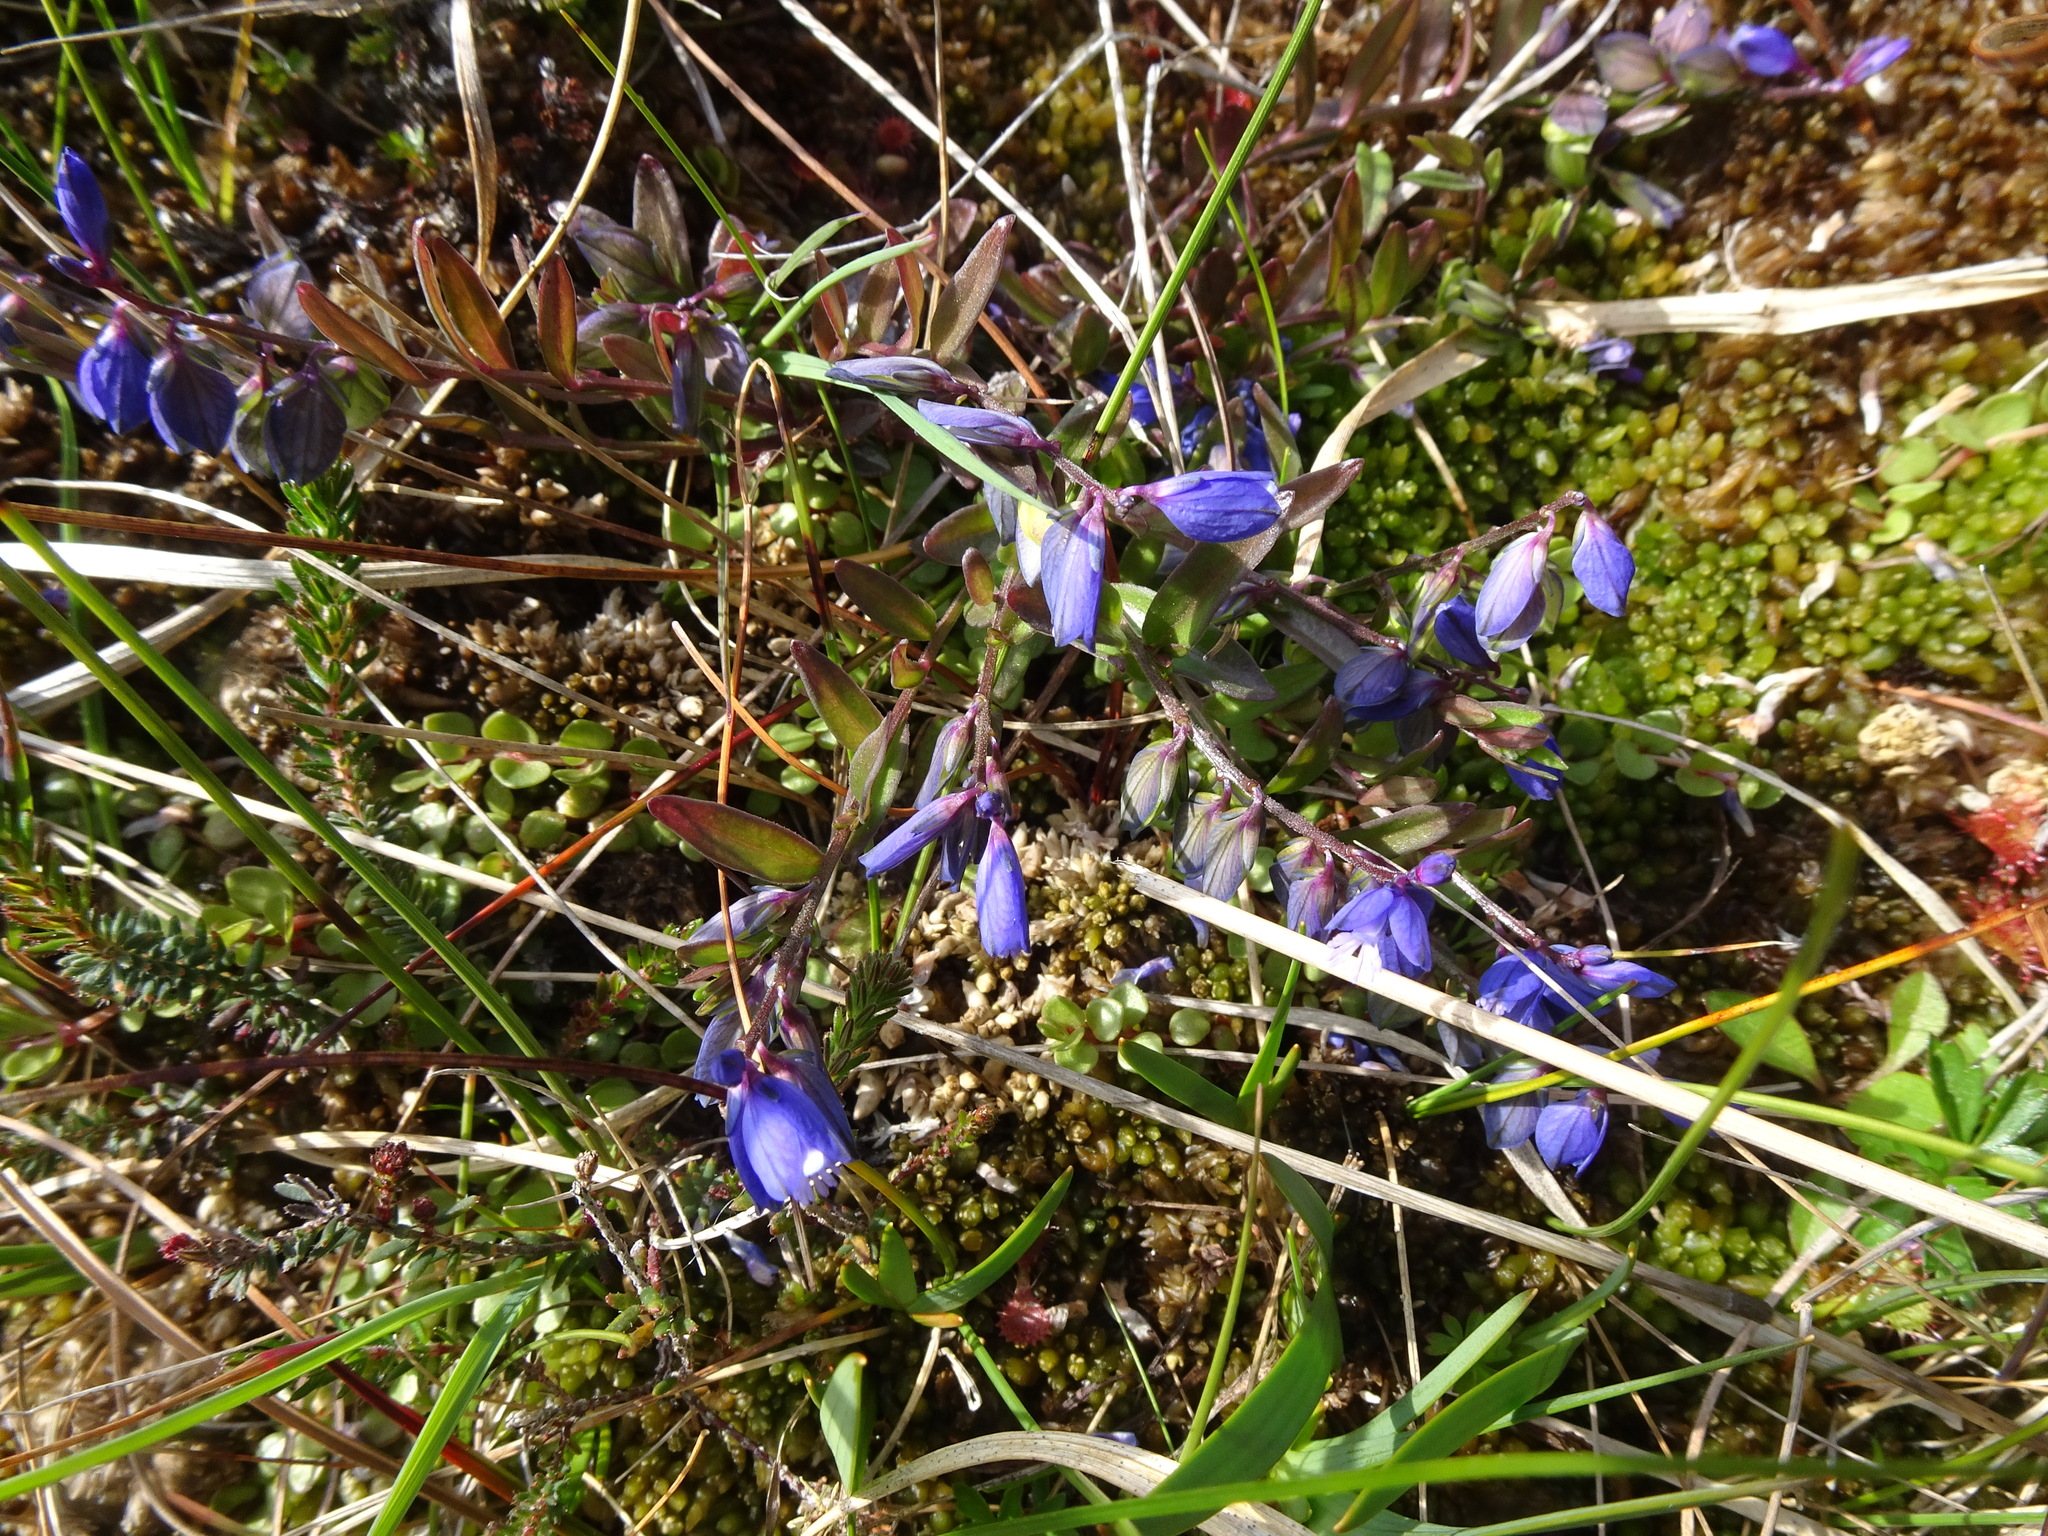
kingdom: Plantae
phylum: Tracheophyta
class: Magnoliopsida
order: Fabales
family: Polygalaceae
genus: Polygala
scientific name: Polygala vulgaris
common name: Common milkwort
